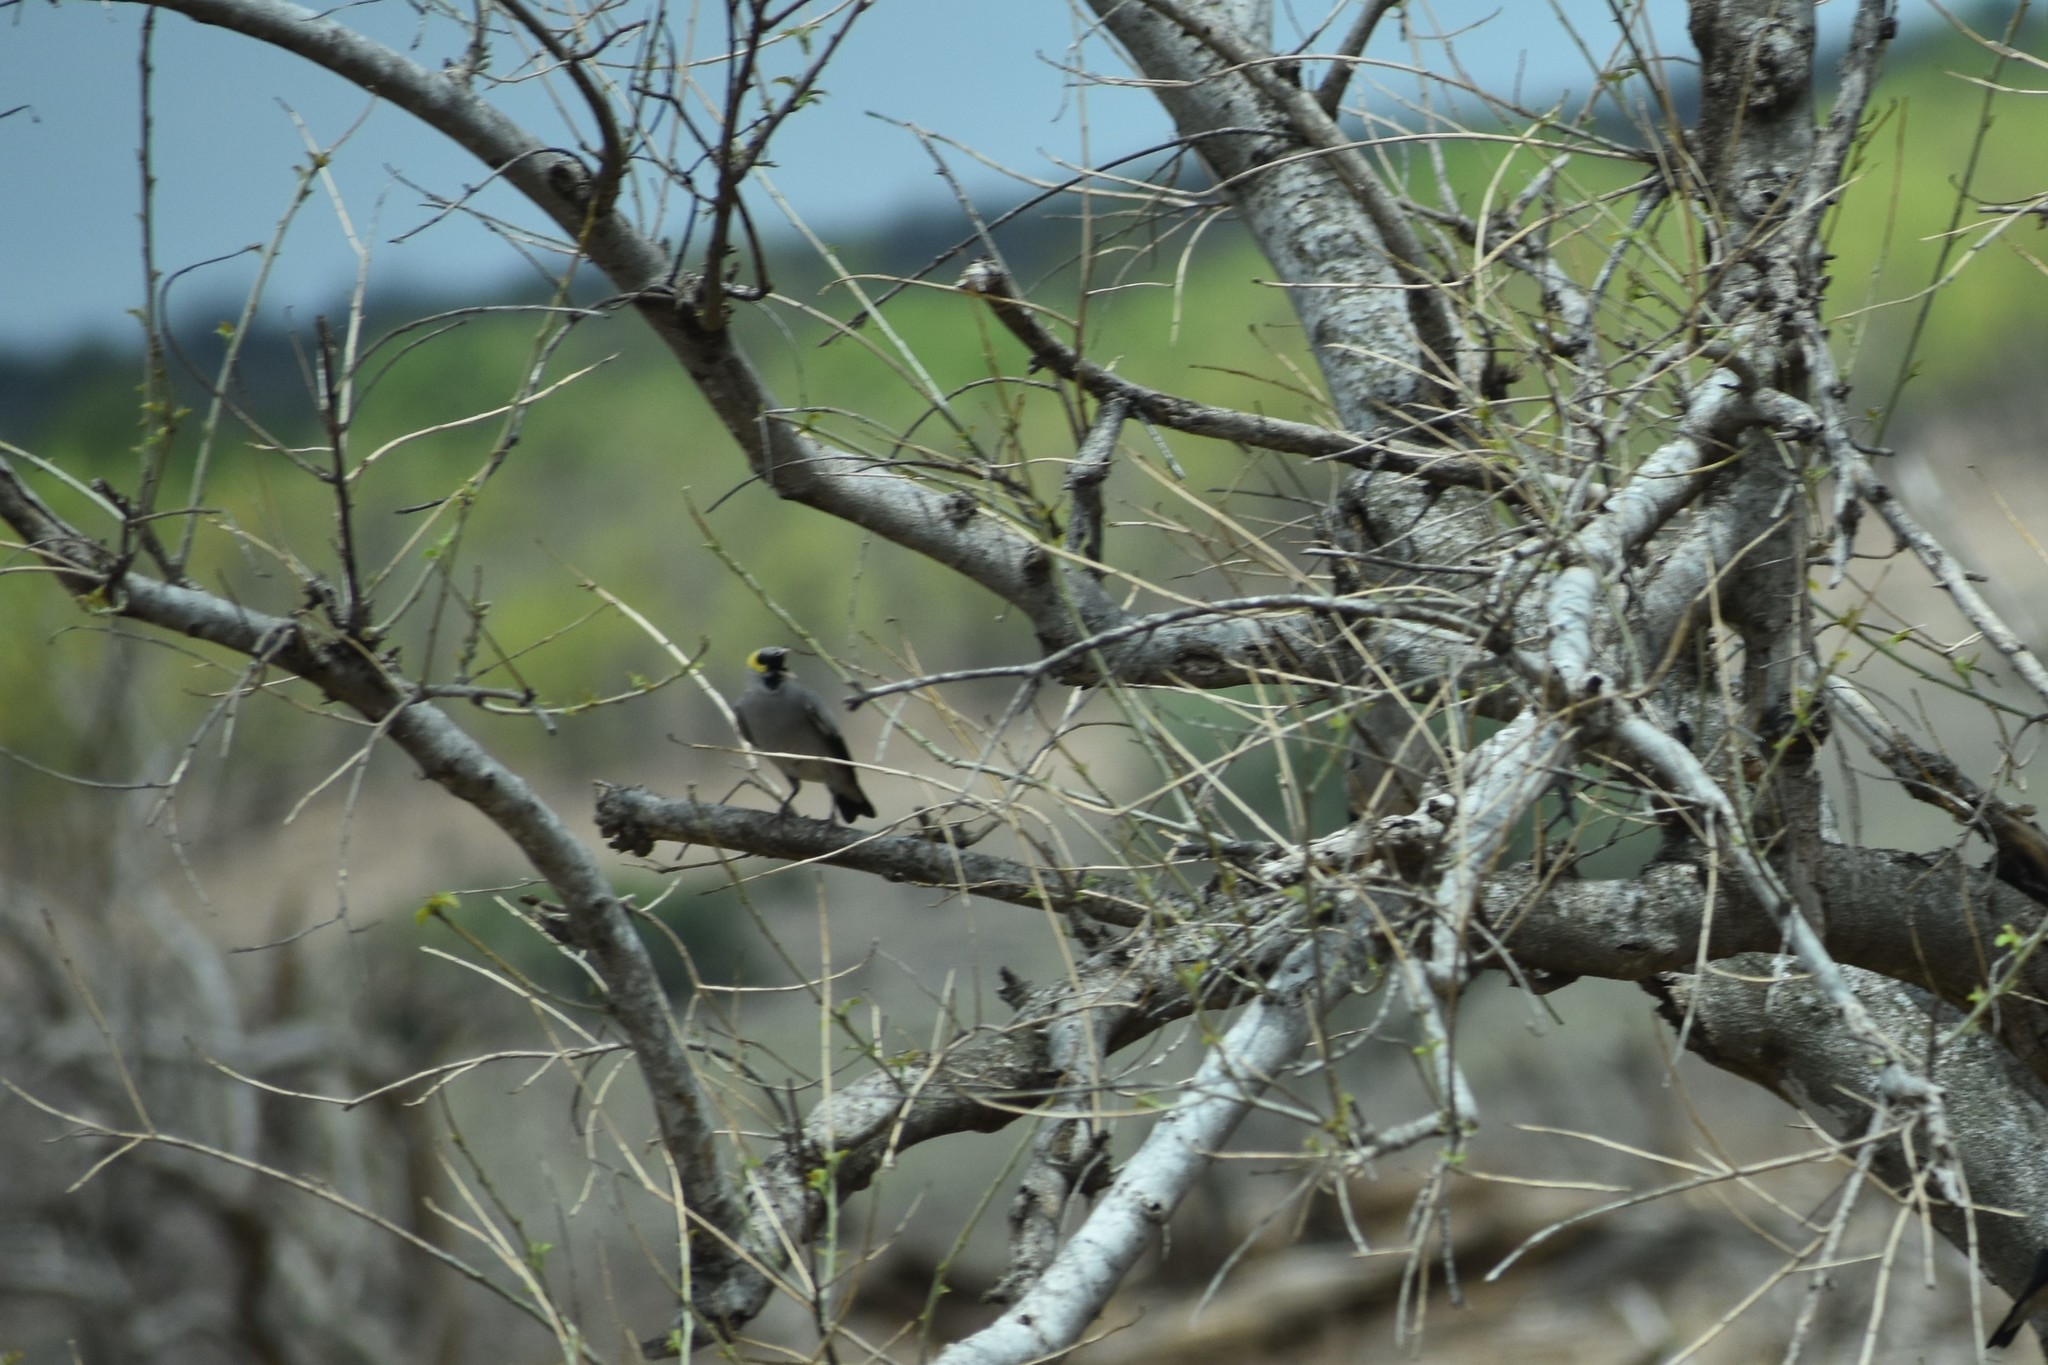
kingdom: Animalia
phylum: Chordata
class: Aves
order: Passeriformes
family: Sturnidae
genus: Creatophora
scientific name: Creatophora cinerea
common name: Wattled starling
